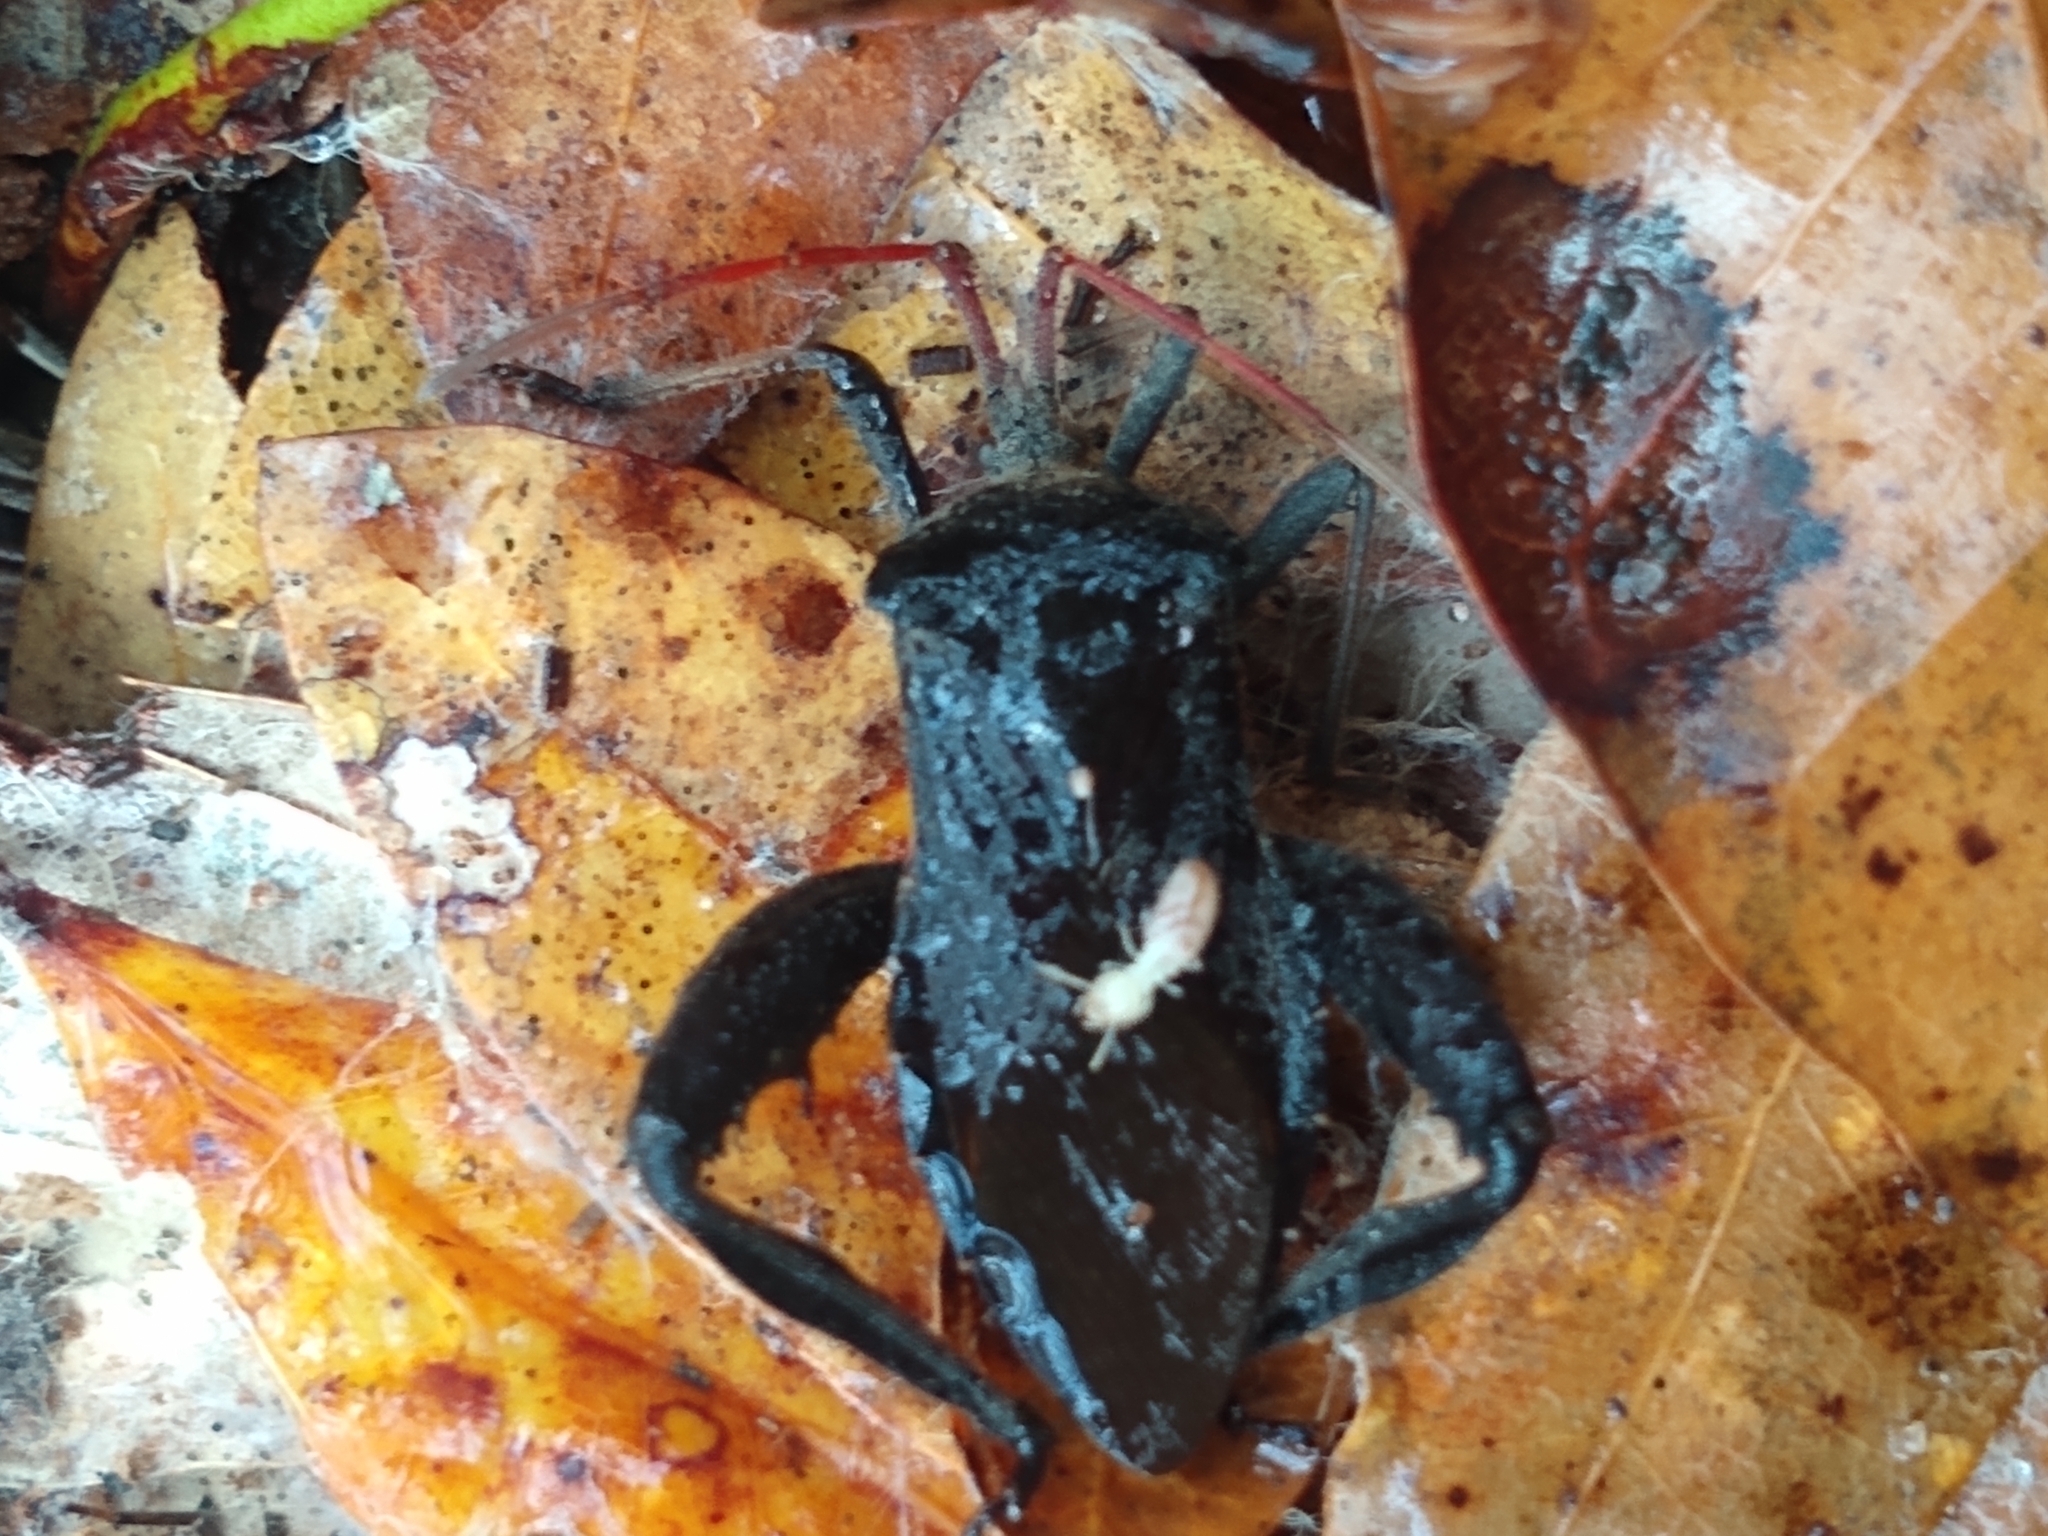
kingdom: Animalia
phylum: Arthropoda
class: Insecta
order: Hemiptera
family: Coreidae
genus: Acanthocephala
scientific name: Acanthocephala femorata
